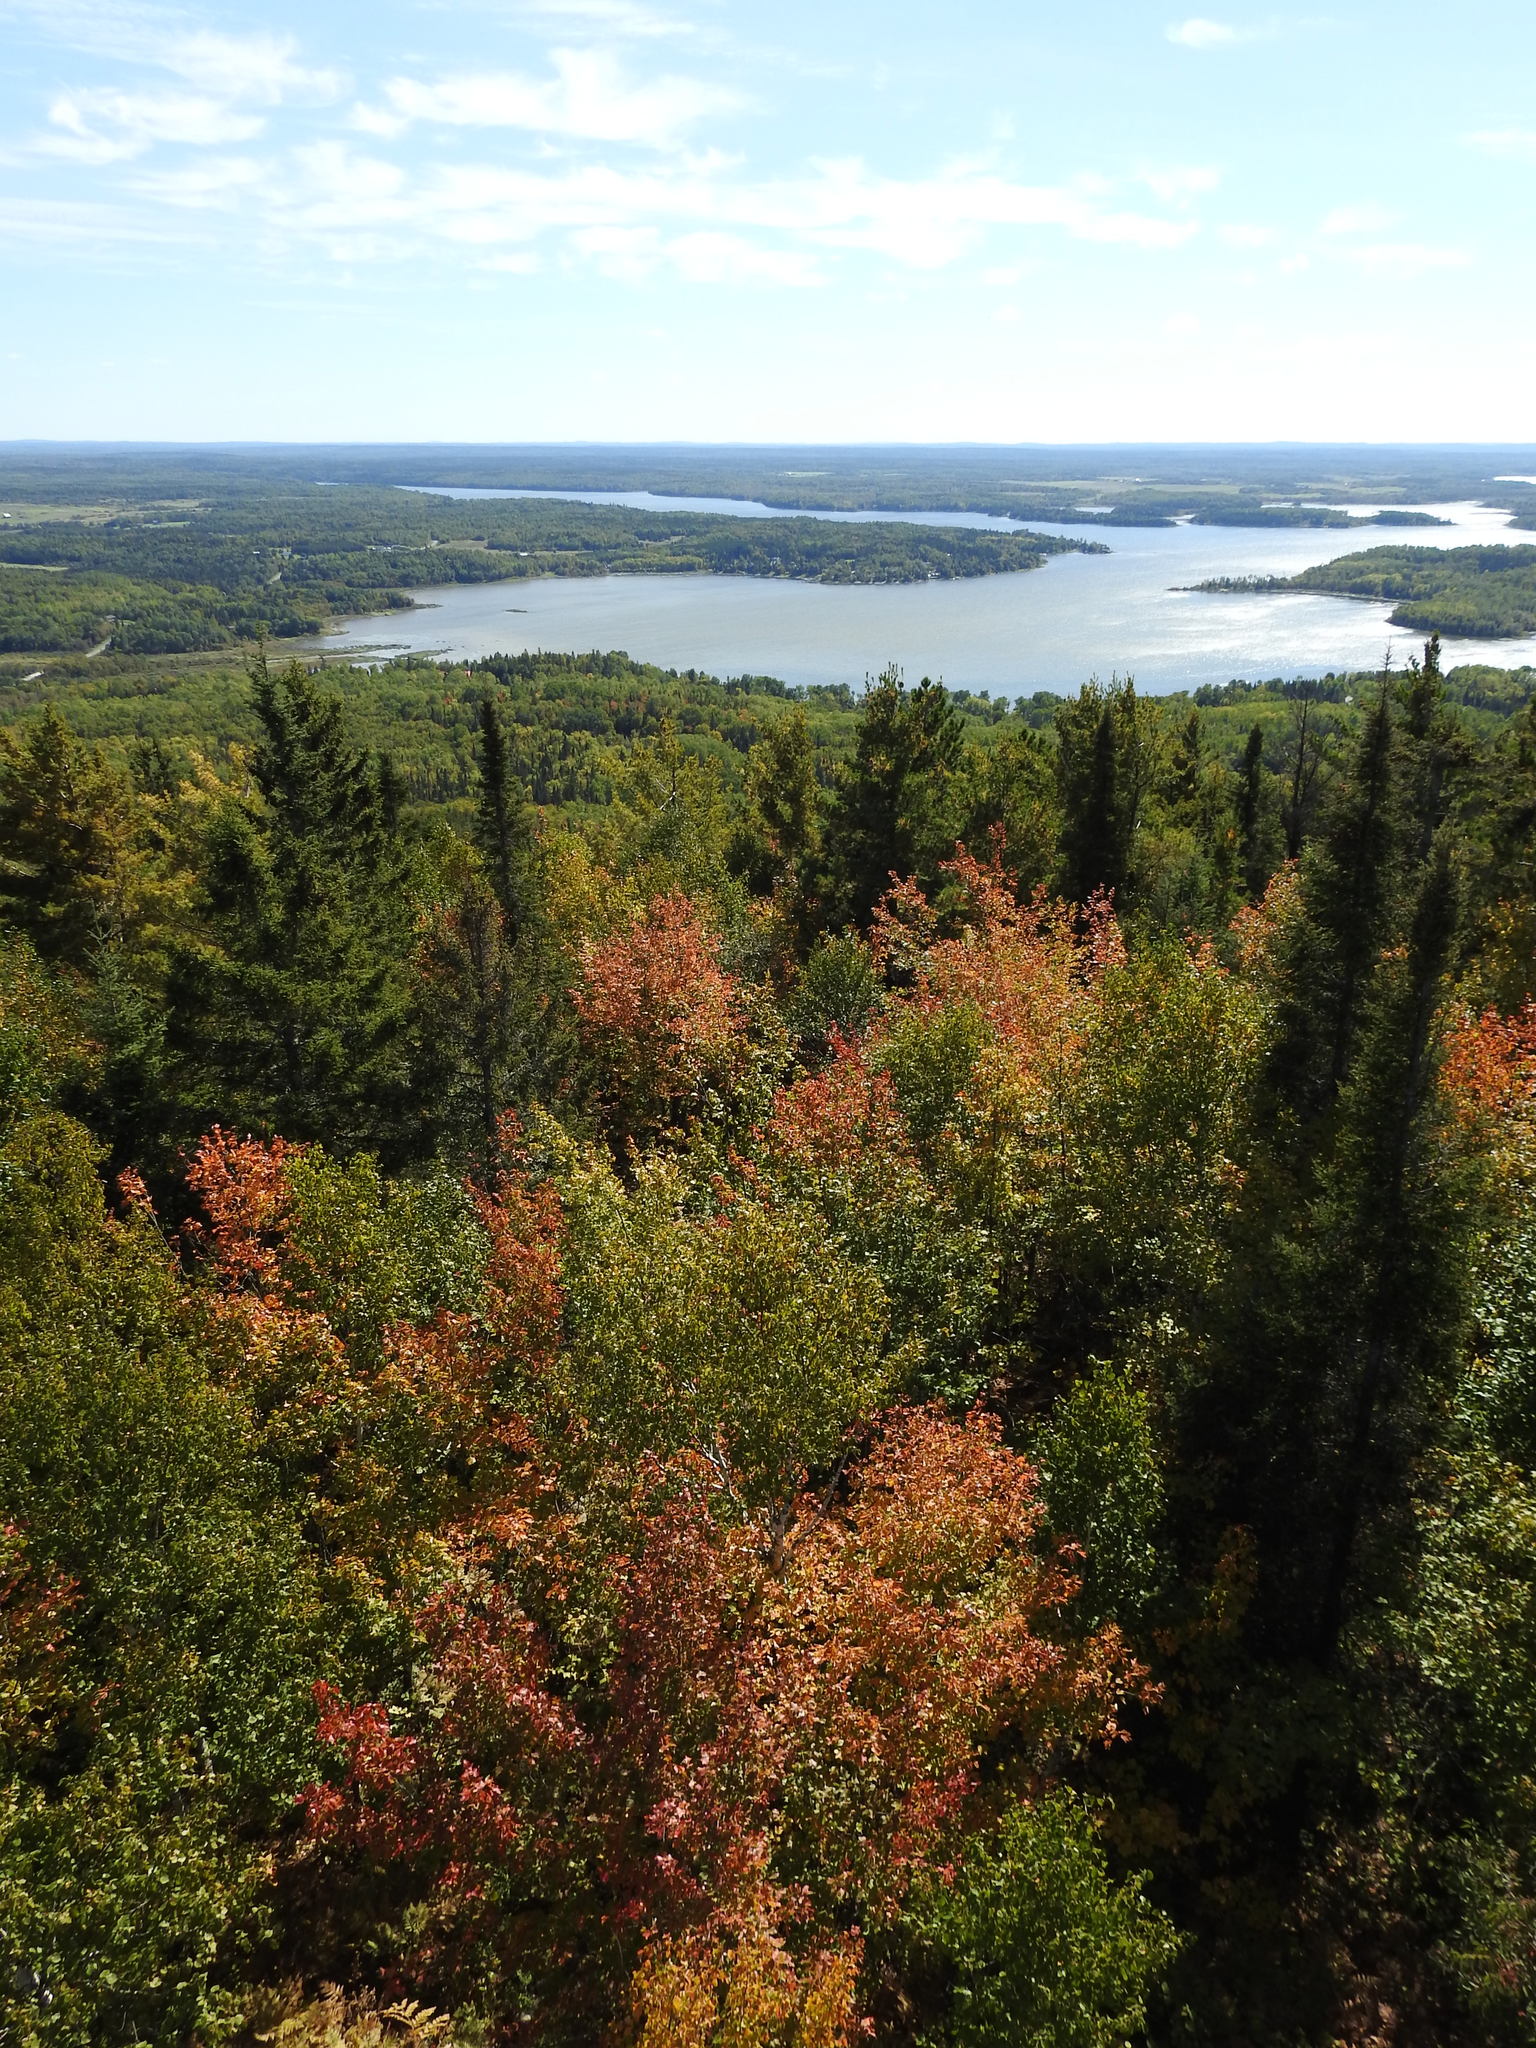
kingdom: Plantae
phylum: Tracheophyta
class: Magnoliopsida
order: Sapindales
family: Sapindaceae
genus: Acer
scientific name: Acer rubrum
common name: Red maple
